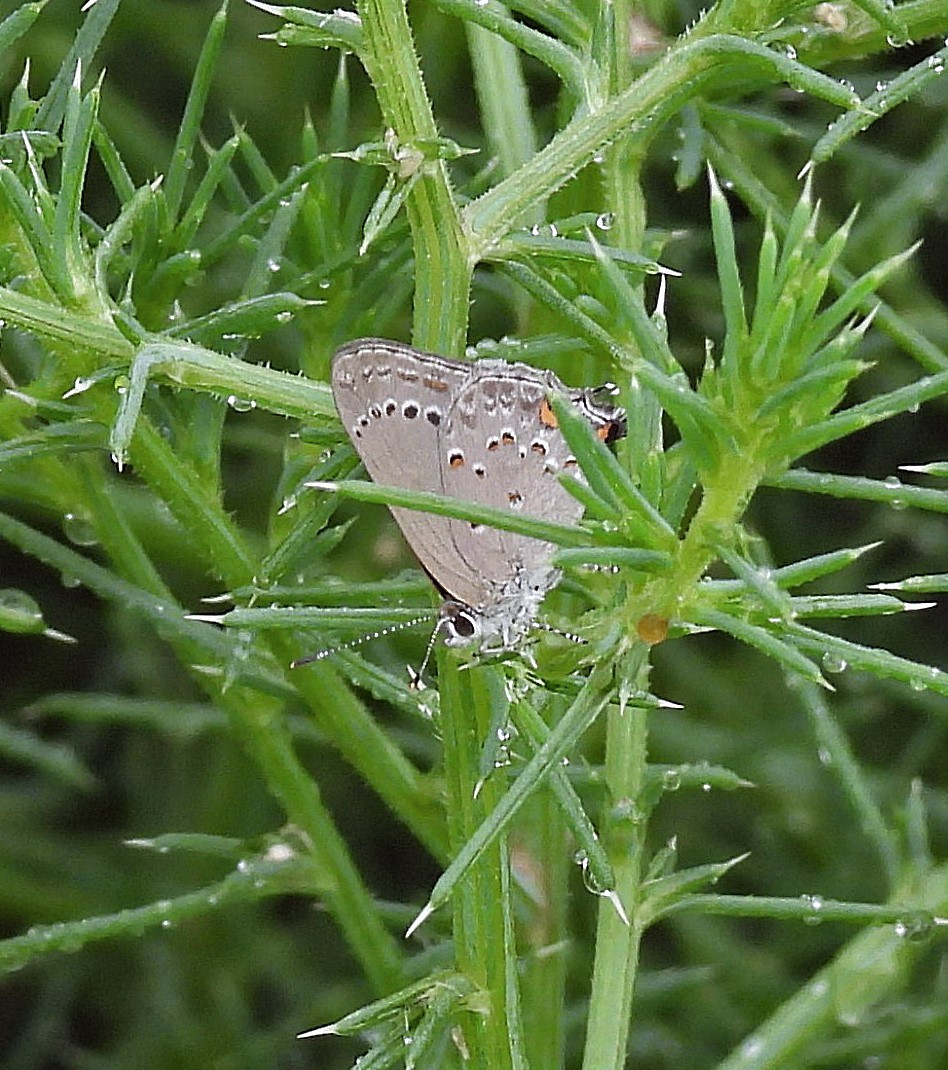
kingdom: Animalia
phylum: Arthropoda
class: Insecta
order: Lepidoptera
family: Lycaenidae
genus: Strymon
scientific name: Strymon eurytulus
